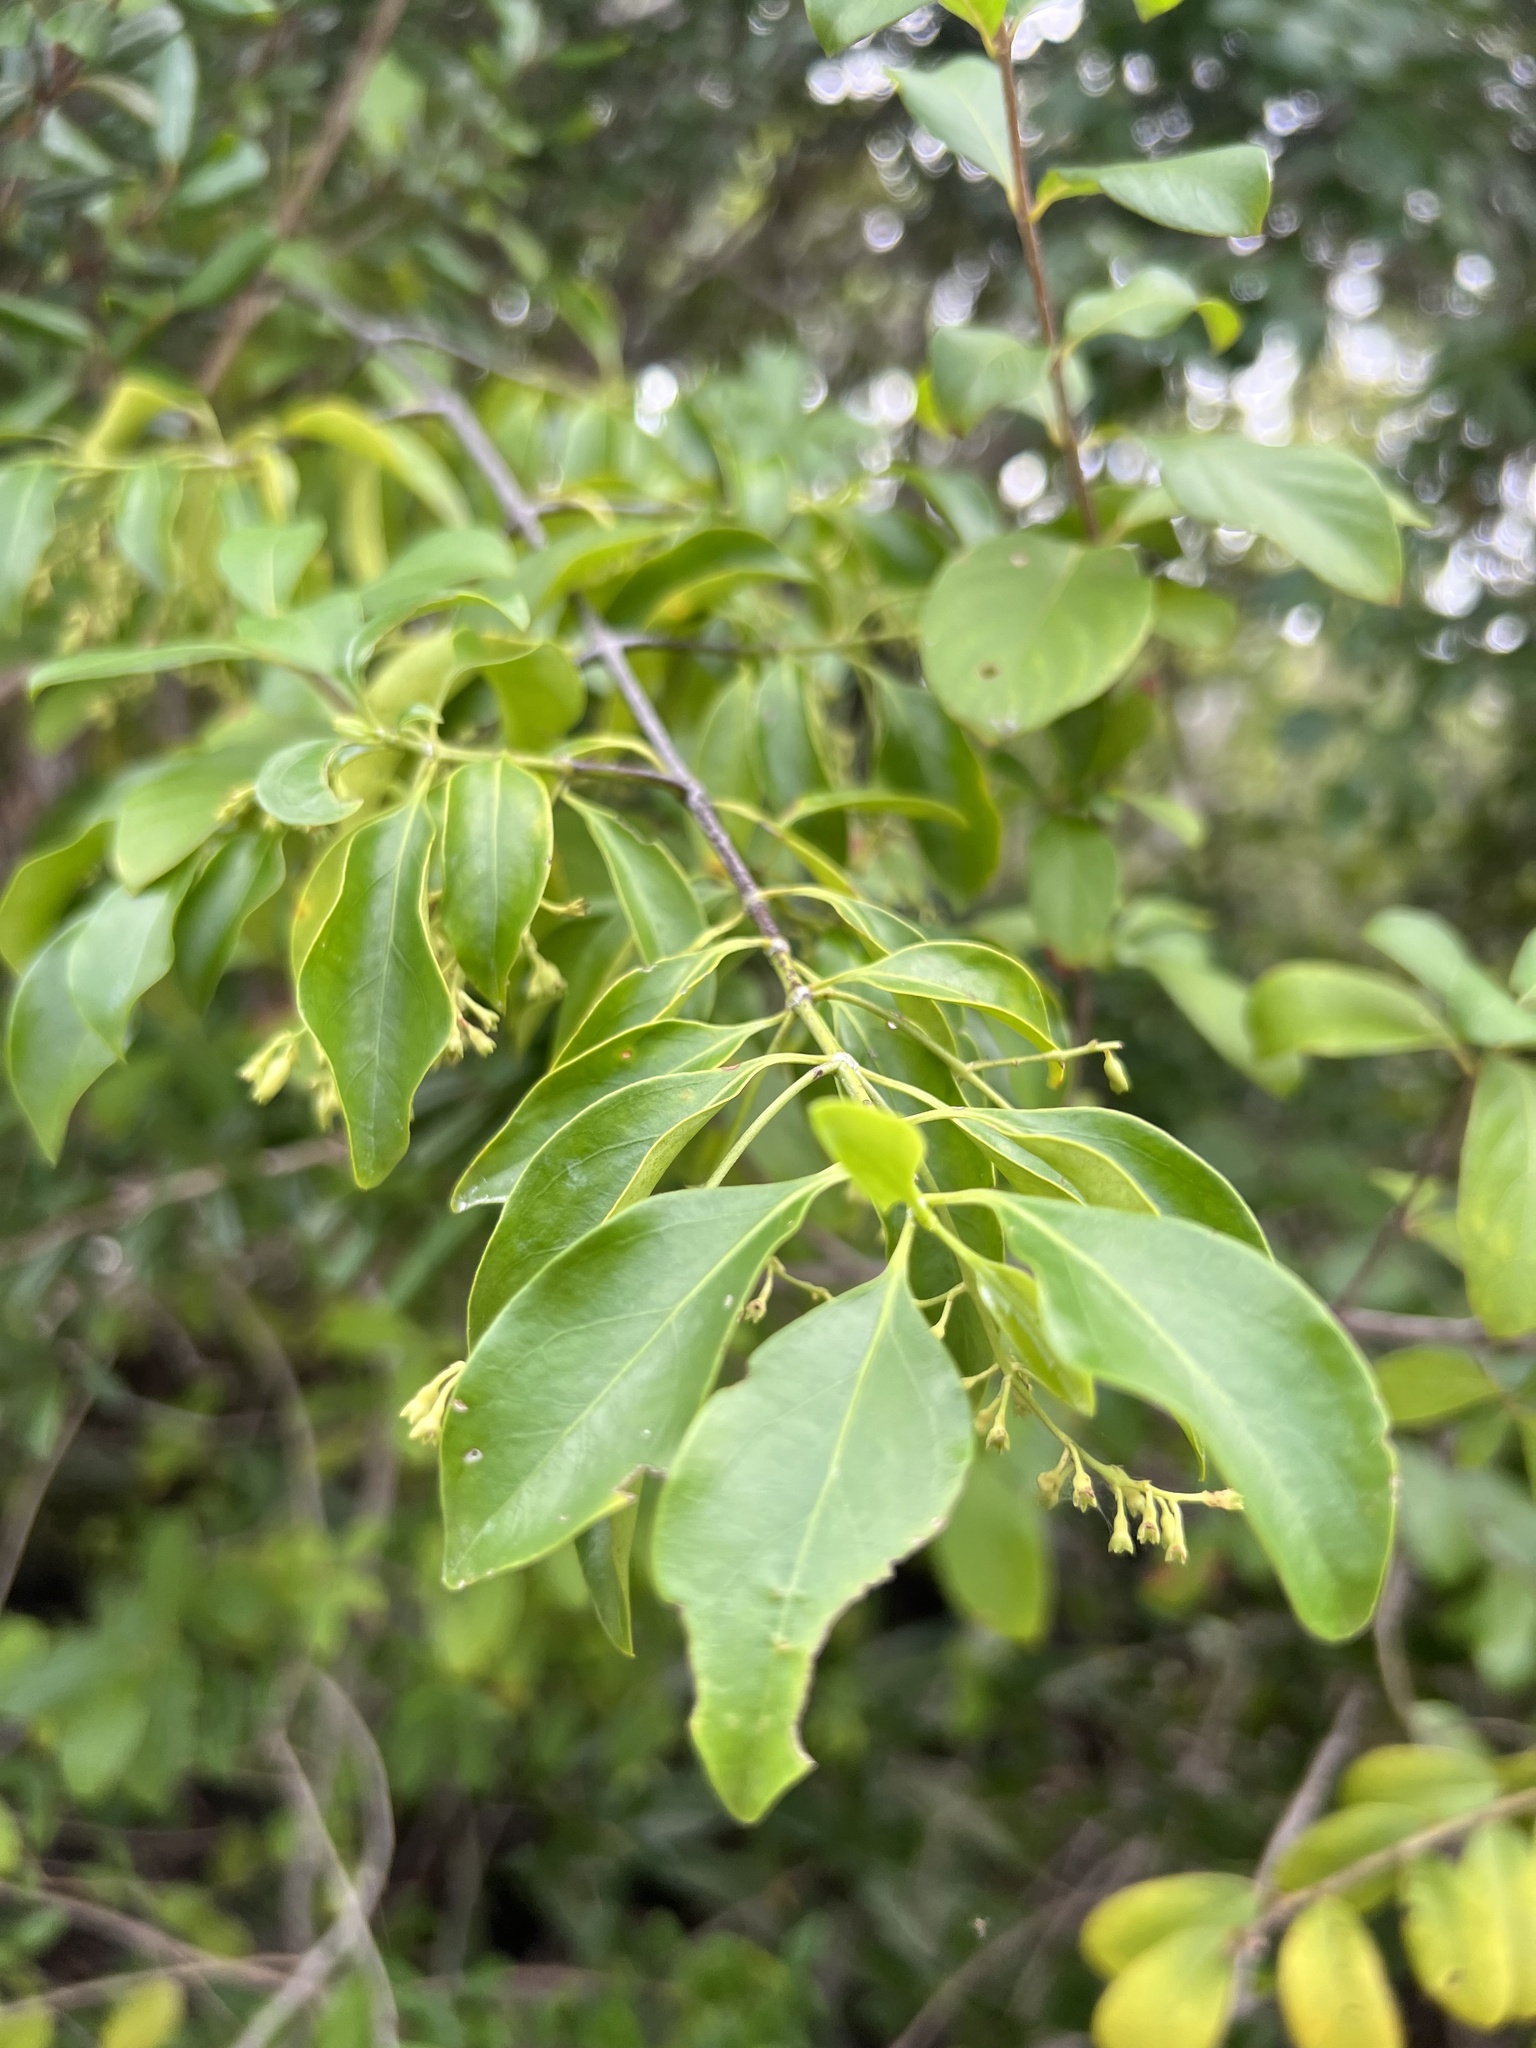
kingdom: Plantae
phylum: Tracheophyta
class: Magnoliopsida
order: Gentianales
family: Rubiaceae
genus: Chiococca
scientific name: Chiococca alba
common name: Snowberry
